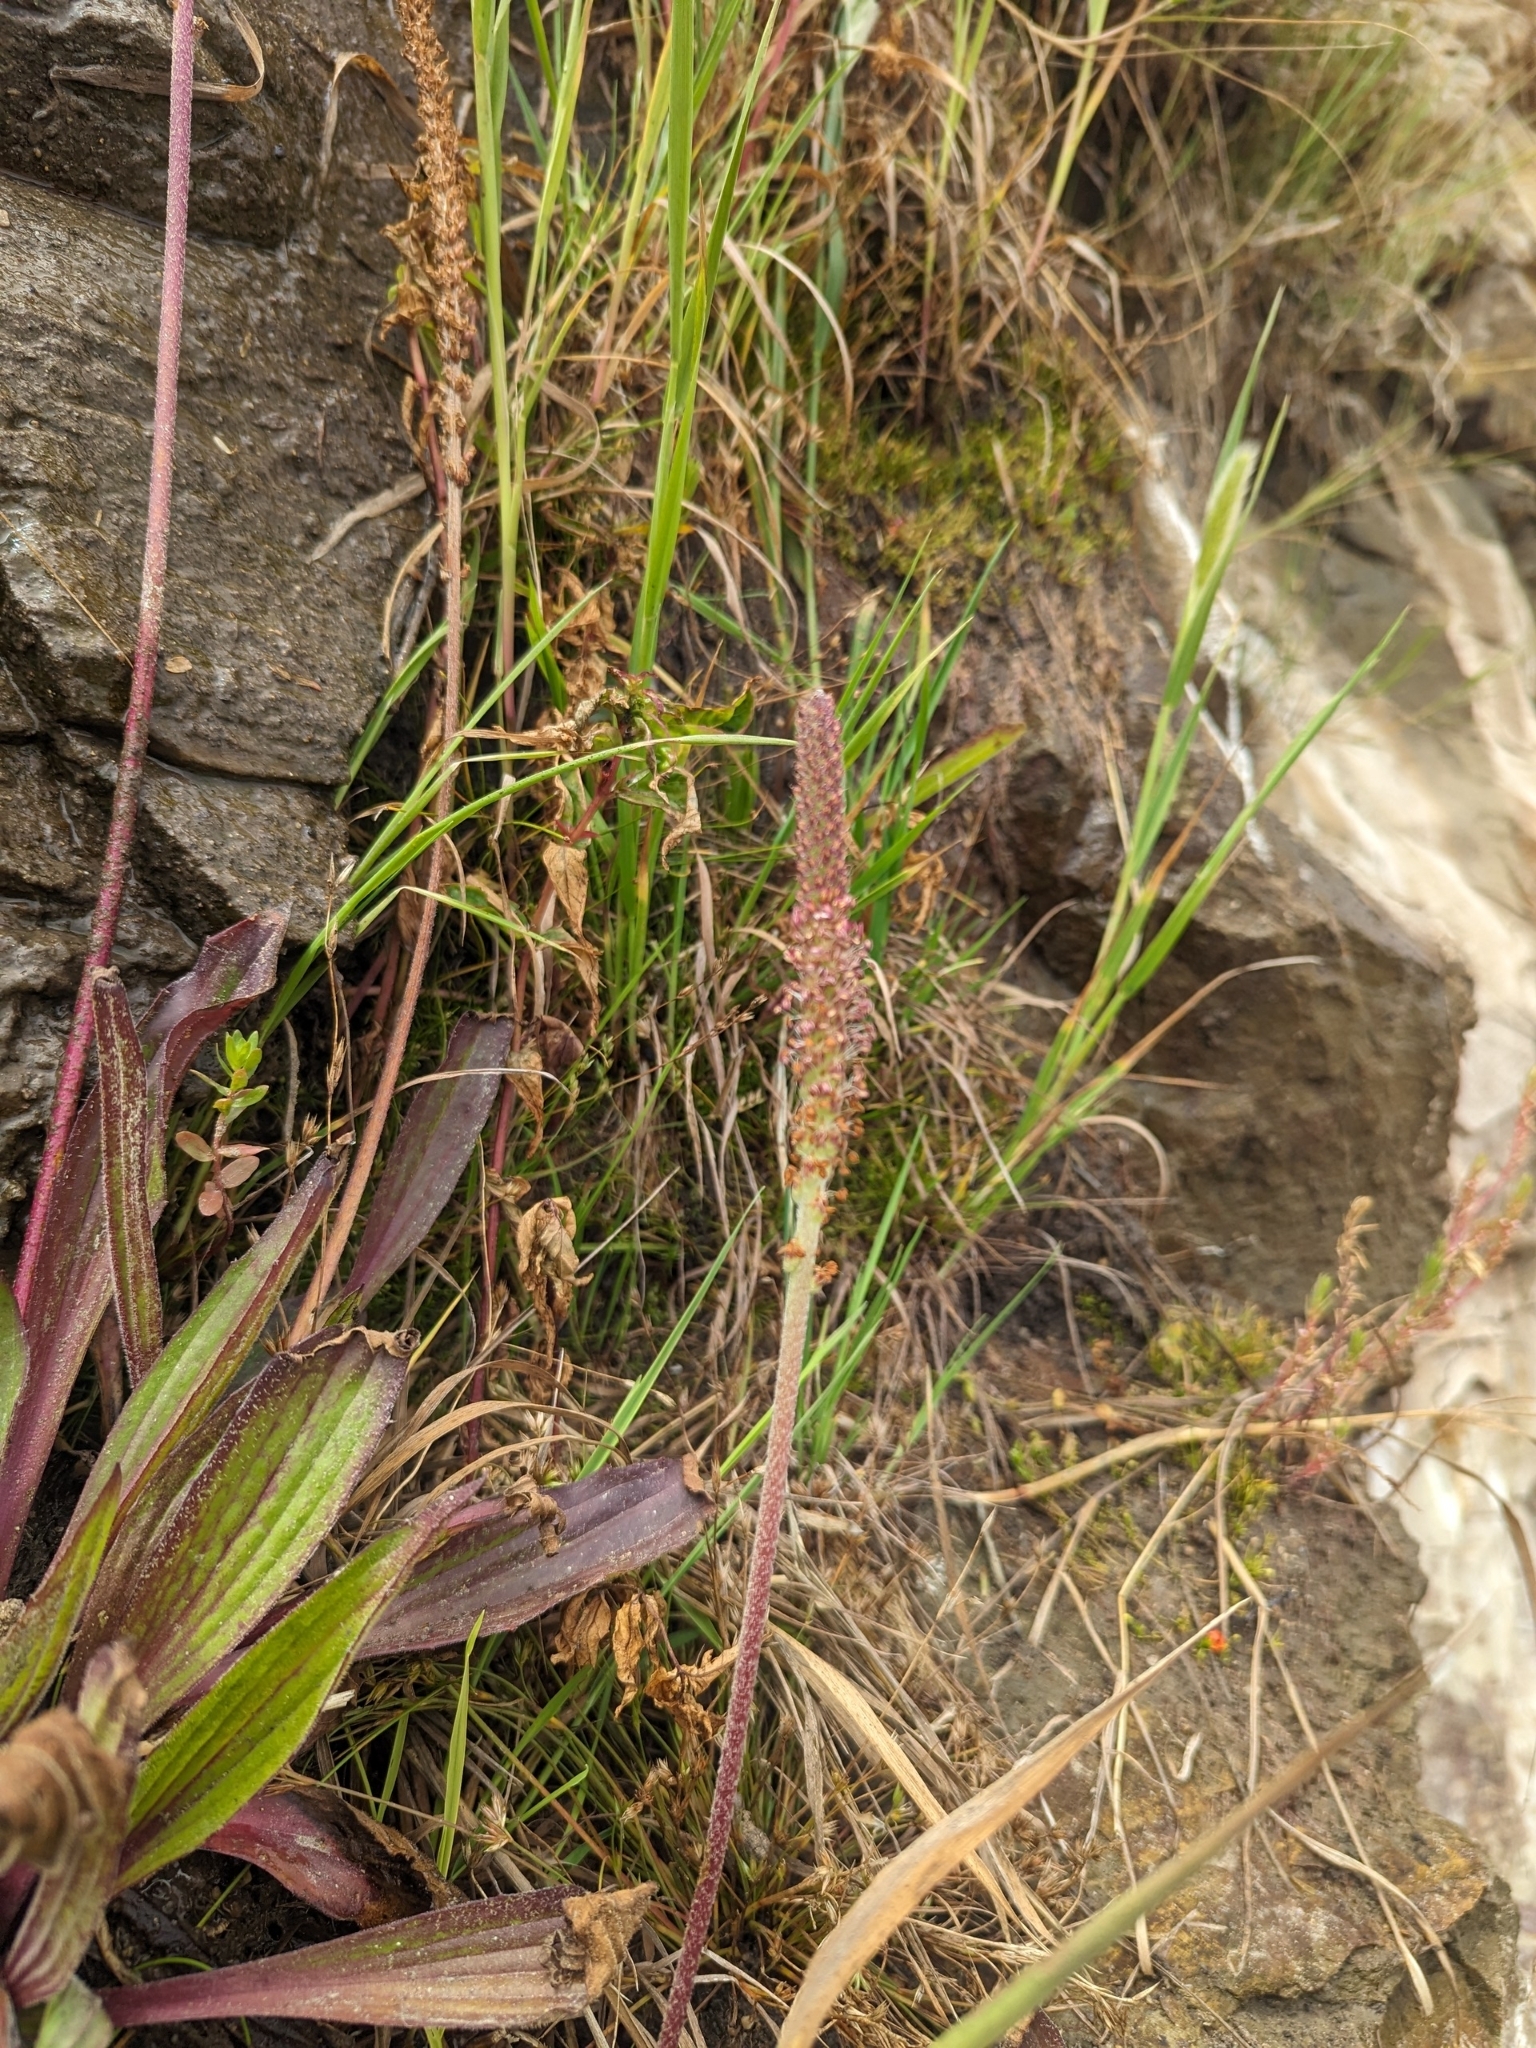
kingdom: Plantae
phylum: Tracheophyta
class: Magnoliopsida
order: Lamiales
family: Plantaginaceae
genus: Plantago
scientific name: Plantago subnuda
